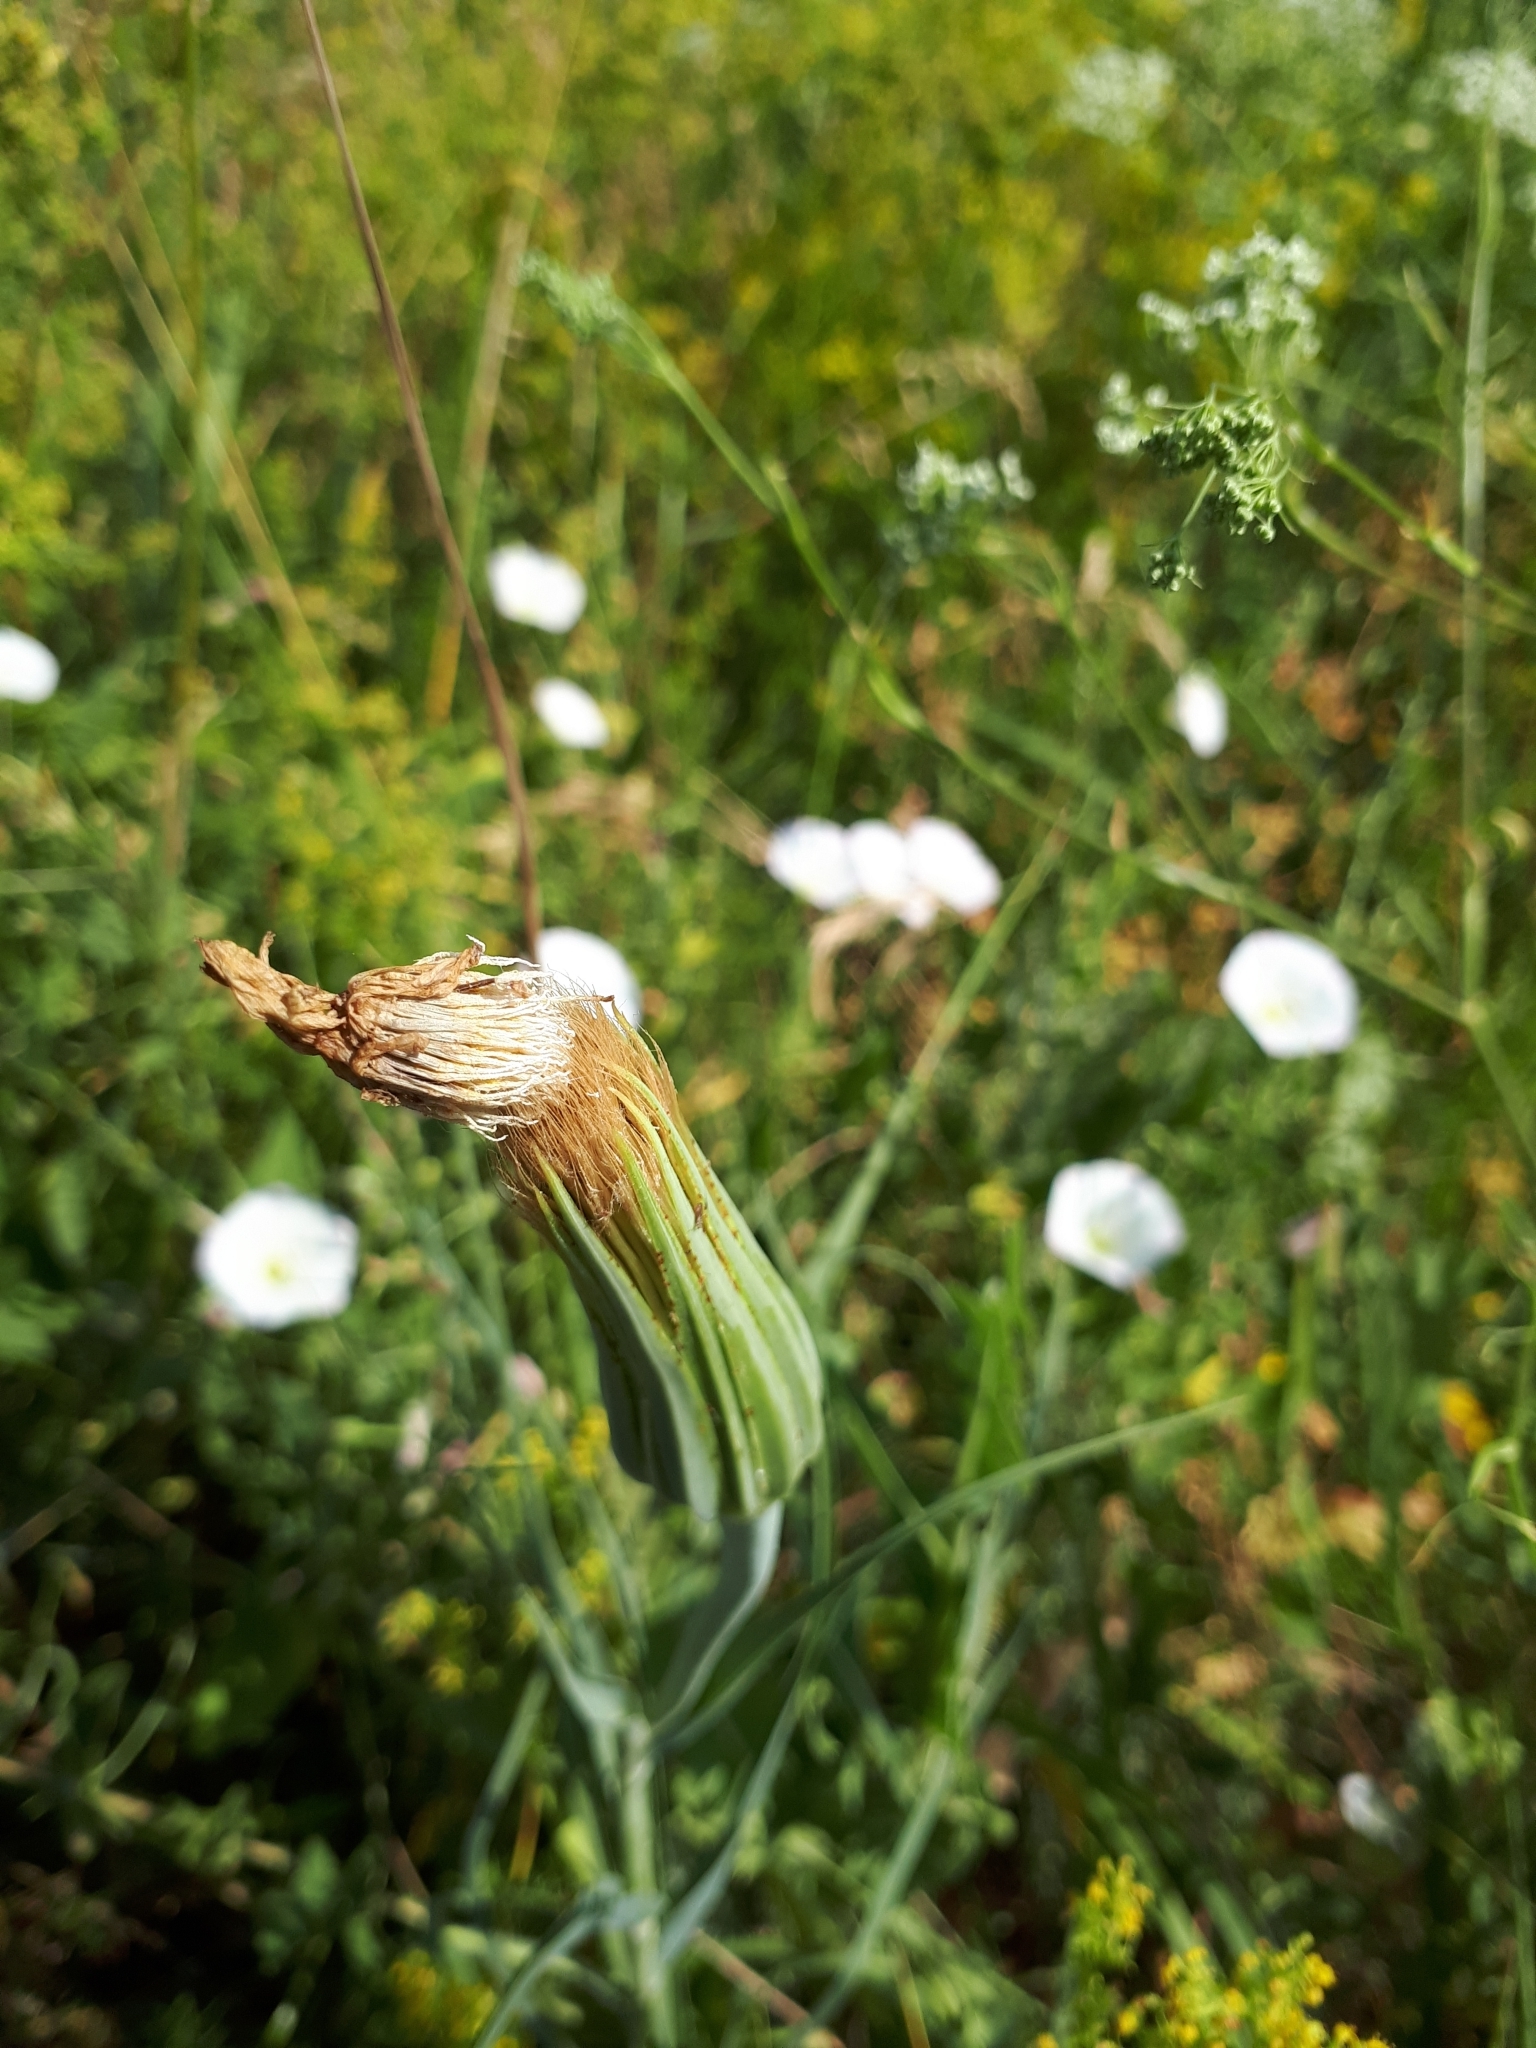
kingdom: Plantae
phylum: Tracheophyta
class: Magnoliopsida
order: Asterales
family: Asteraceae
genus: Tragopogon
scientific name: Tragopogon dubius
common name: Yellow salsify
